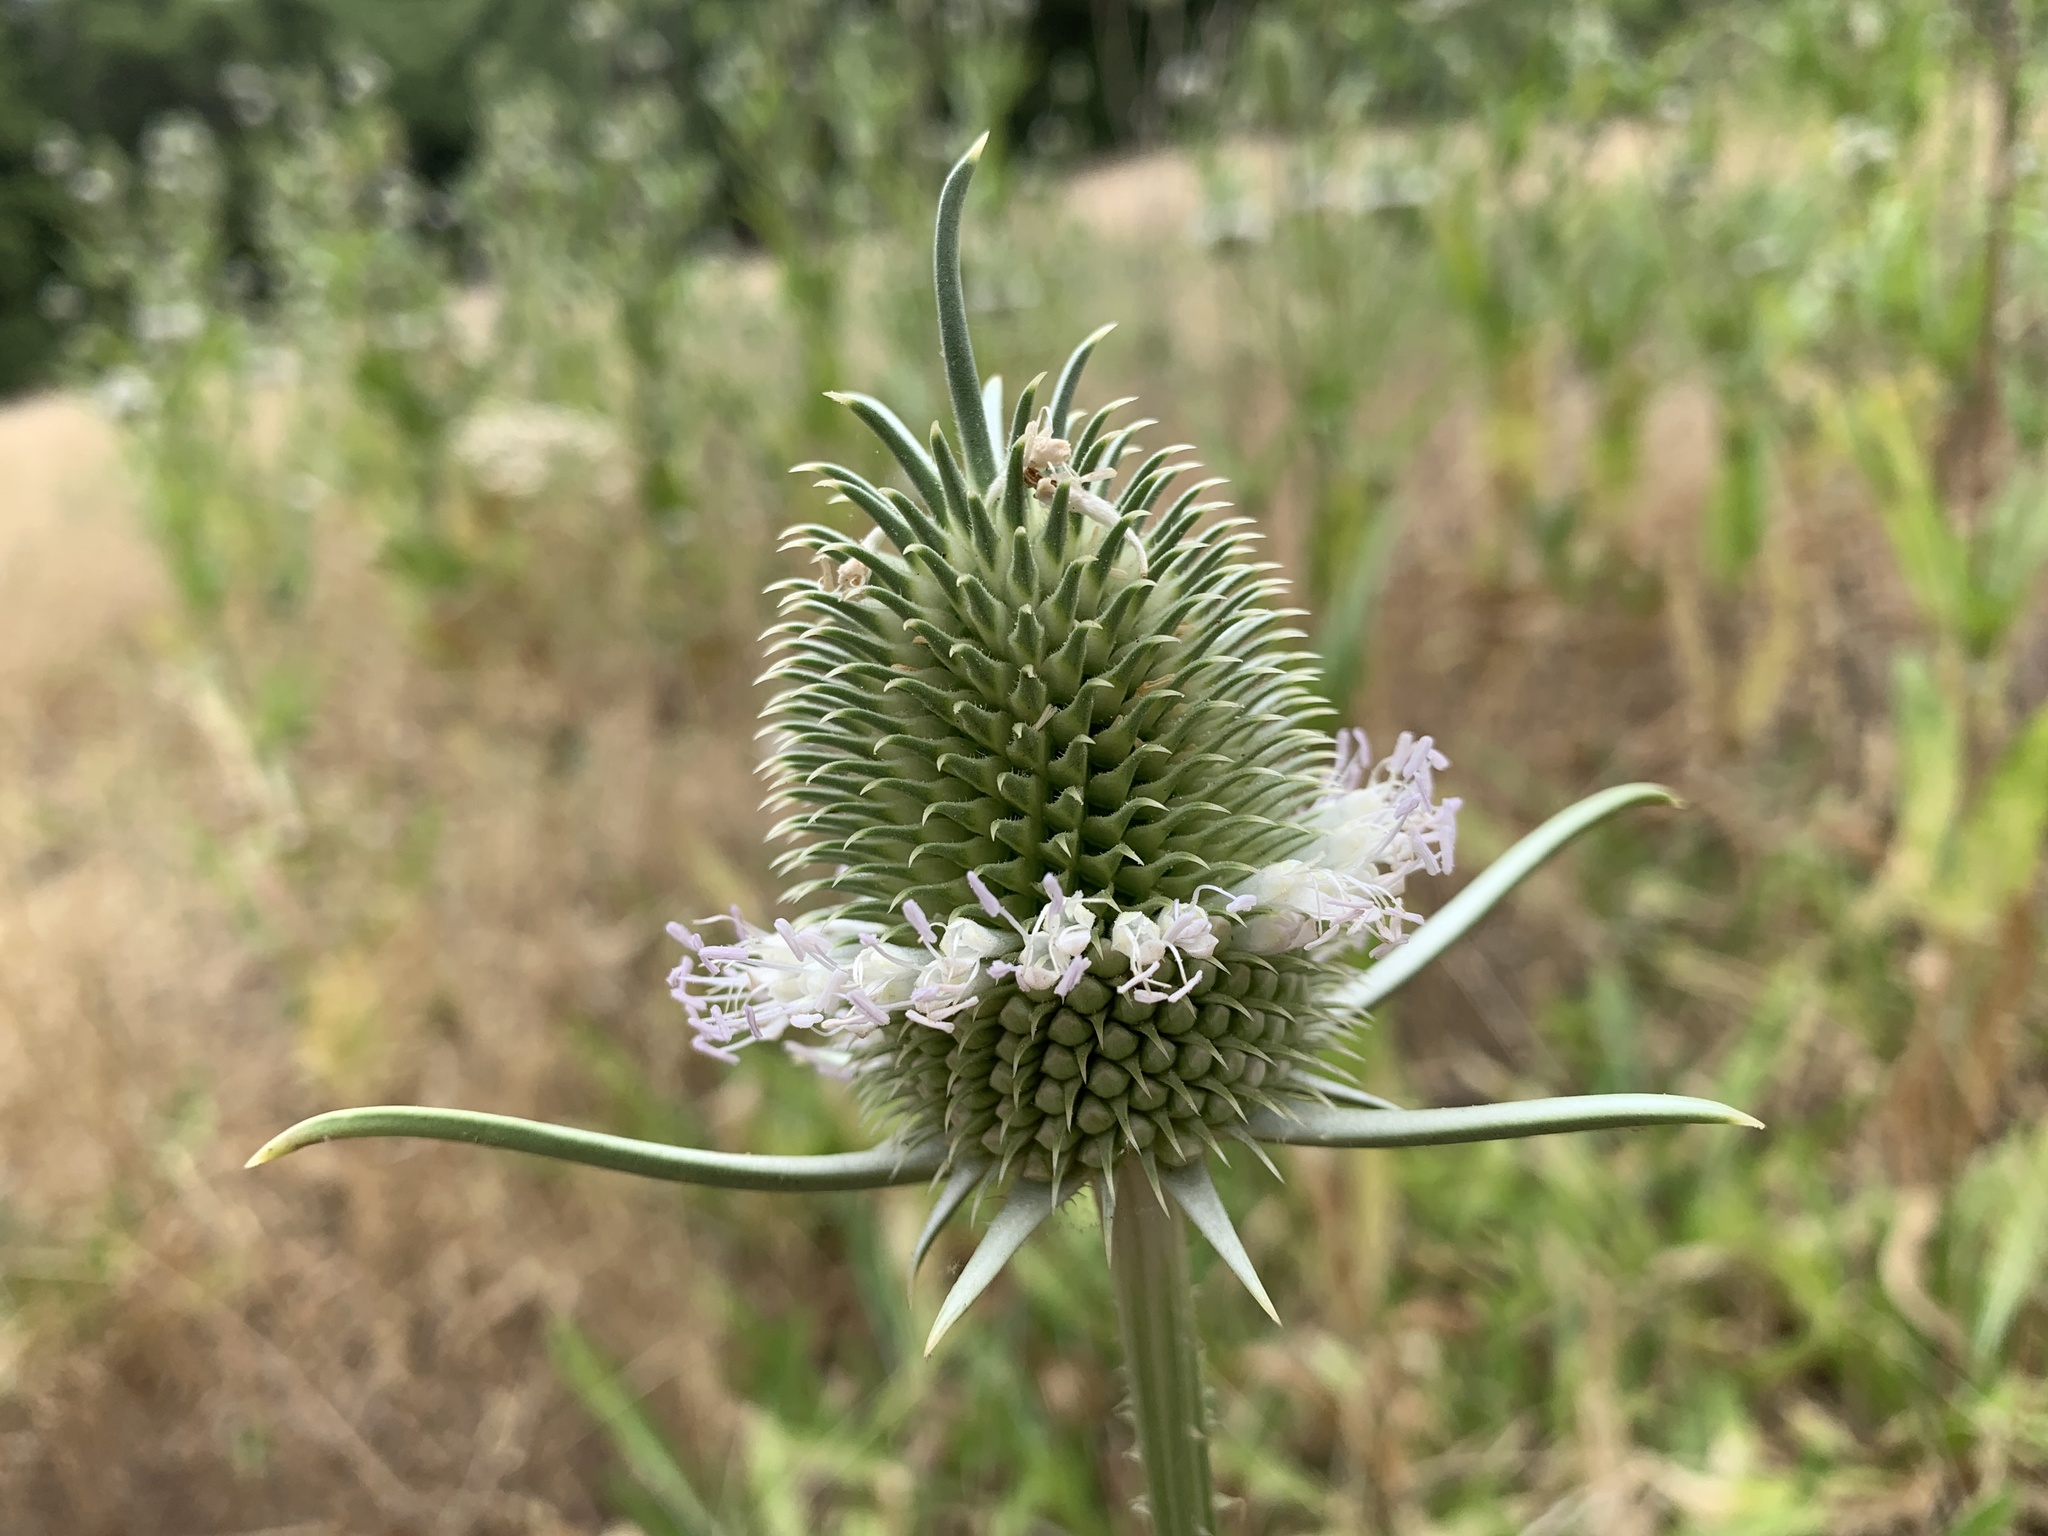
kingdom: Plantae
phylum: Tracheophyta
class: Magnoliopsida
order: Dipsacales
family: Caprifoliaceae
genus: Dipsacus
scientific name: Dipsacus sativus
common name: Fuller's teasel
